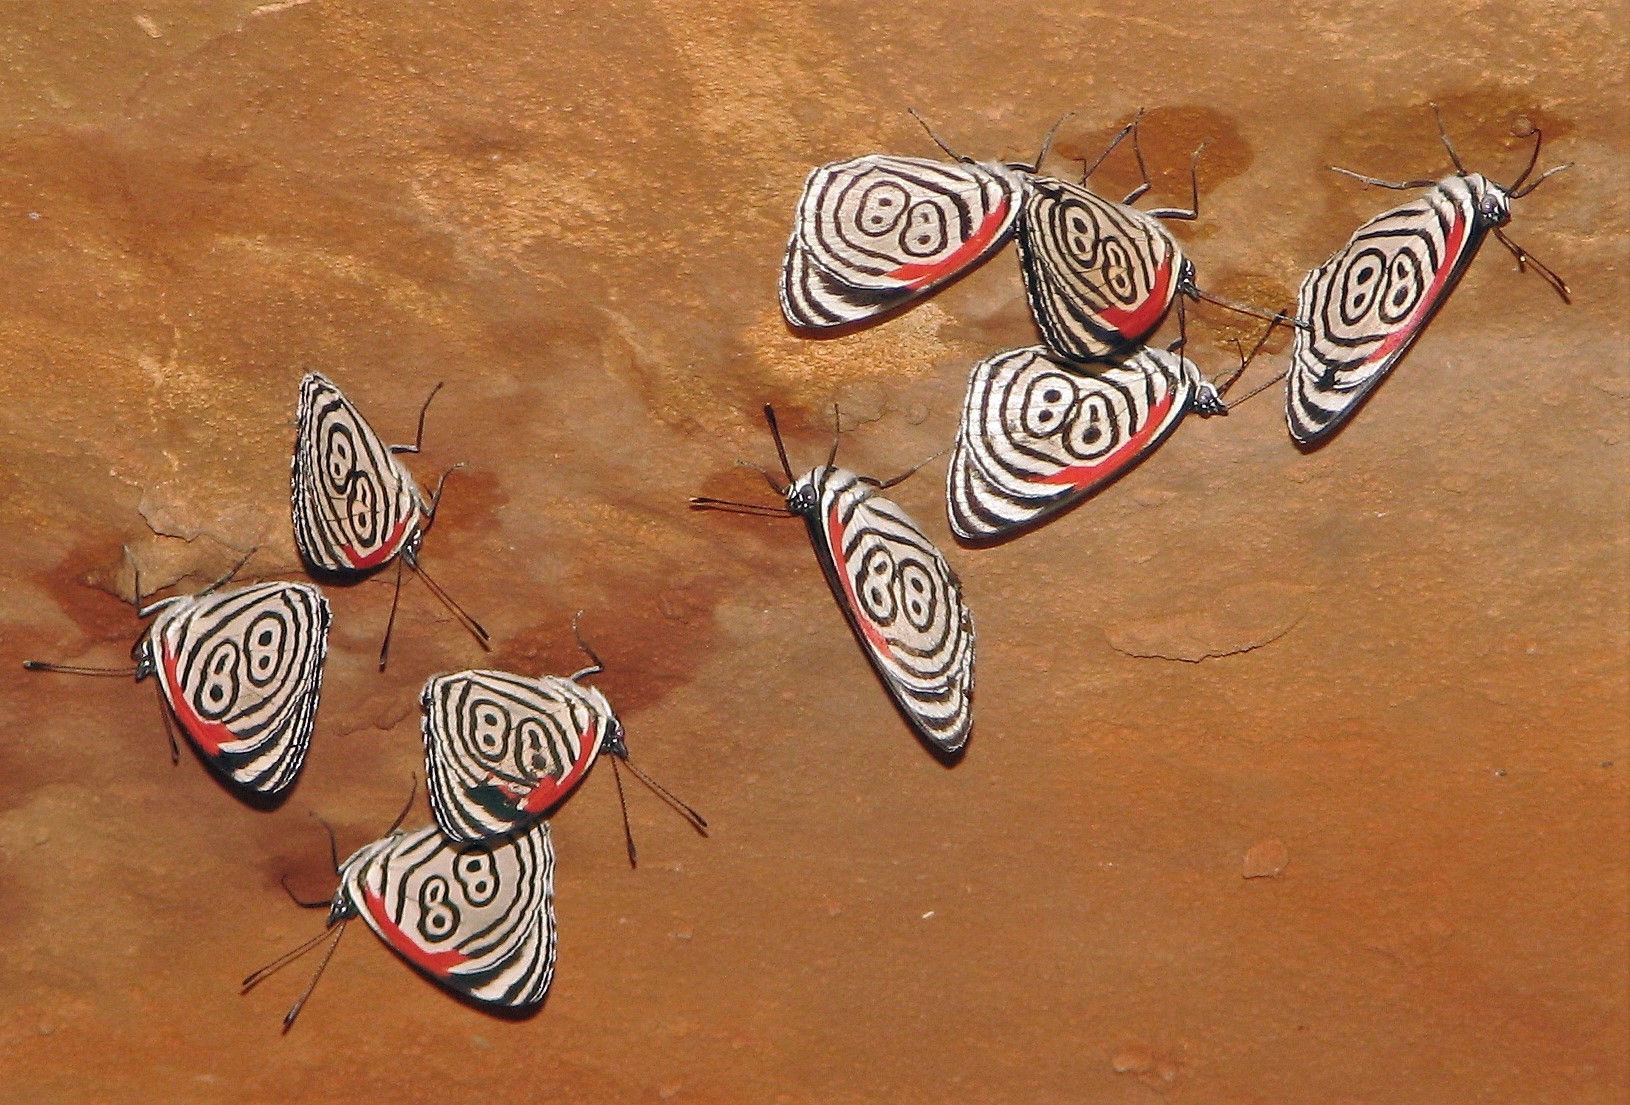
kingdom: Animalia
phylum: Arthropoda
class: Insecta
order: Lepidoptera
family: Nymphalidae
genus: Diaethria
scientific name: Diaethria clymena
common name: Widespread eighty-eight
